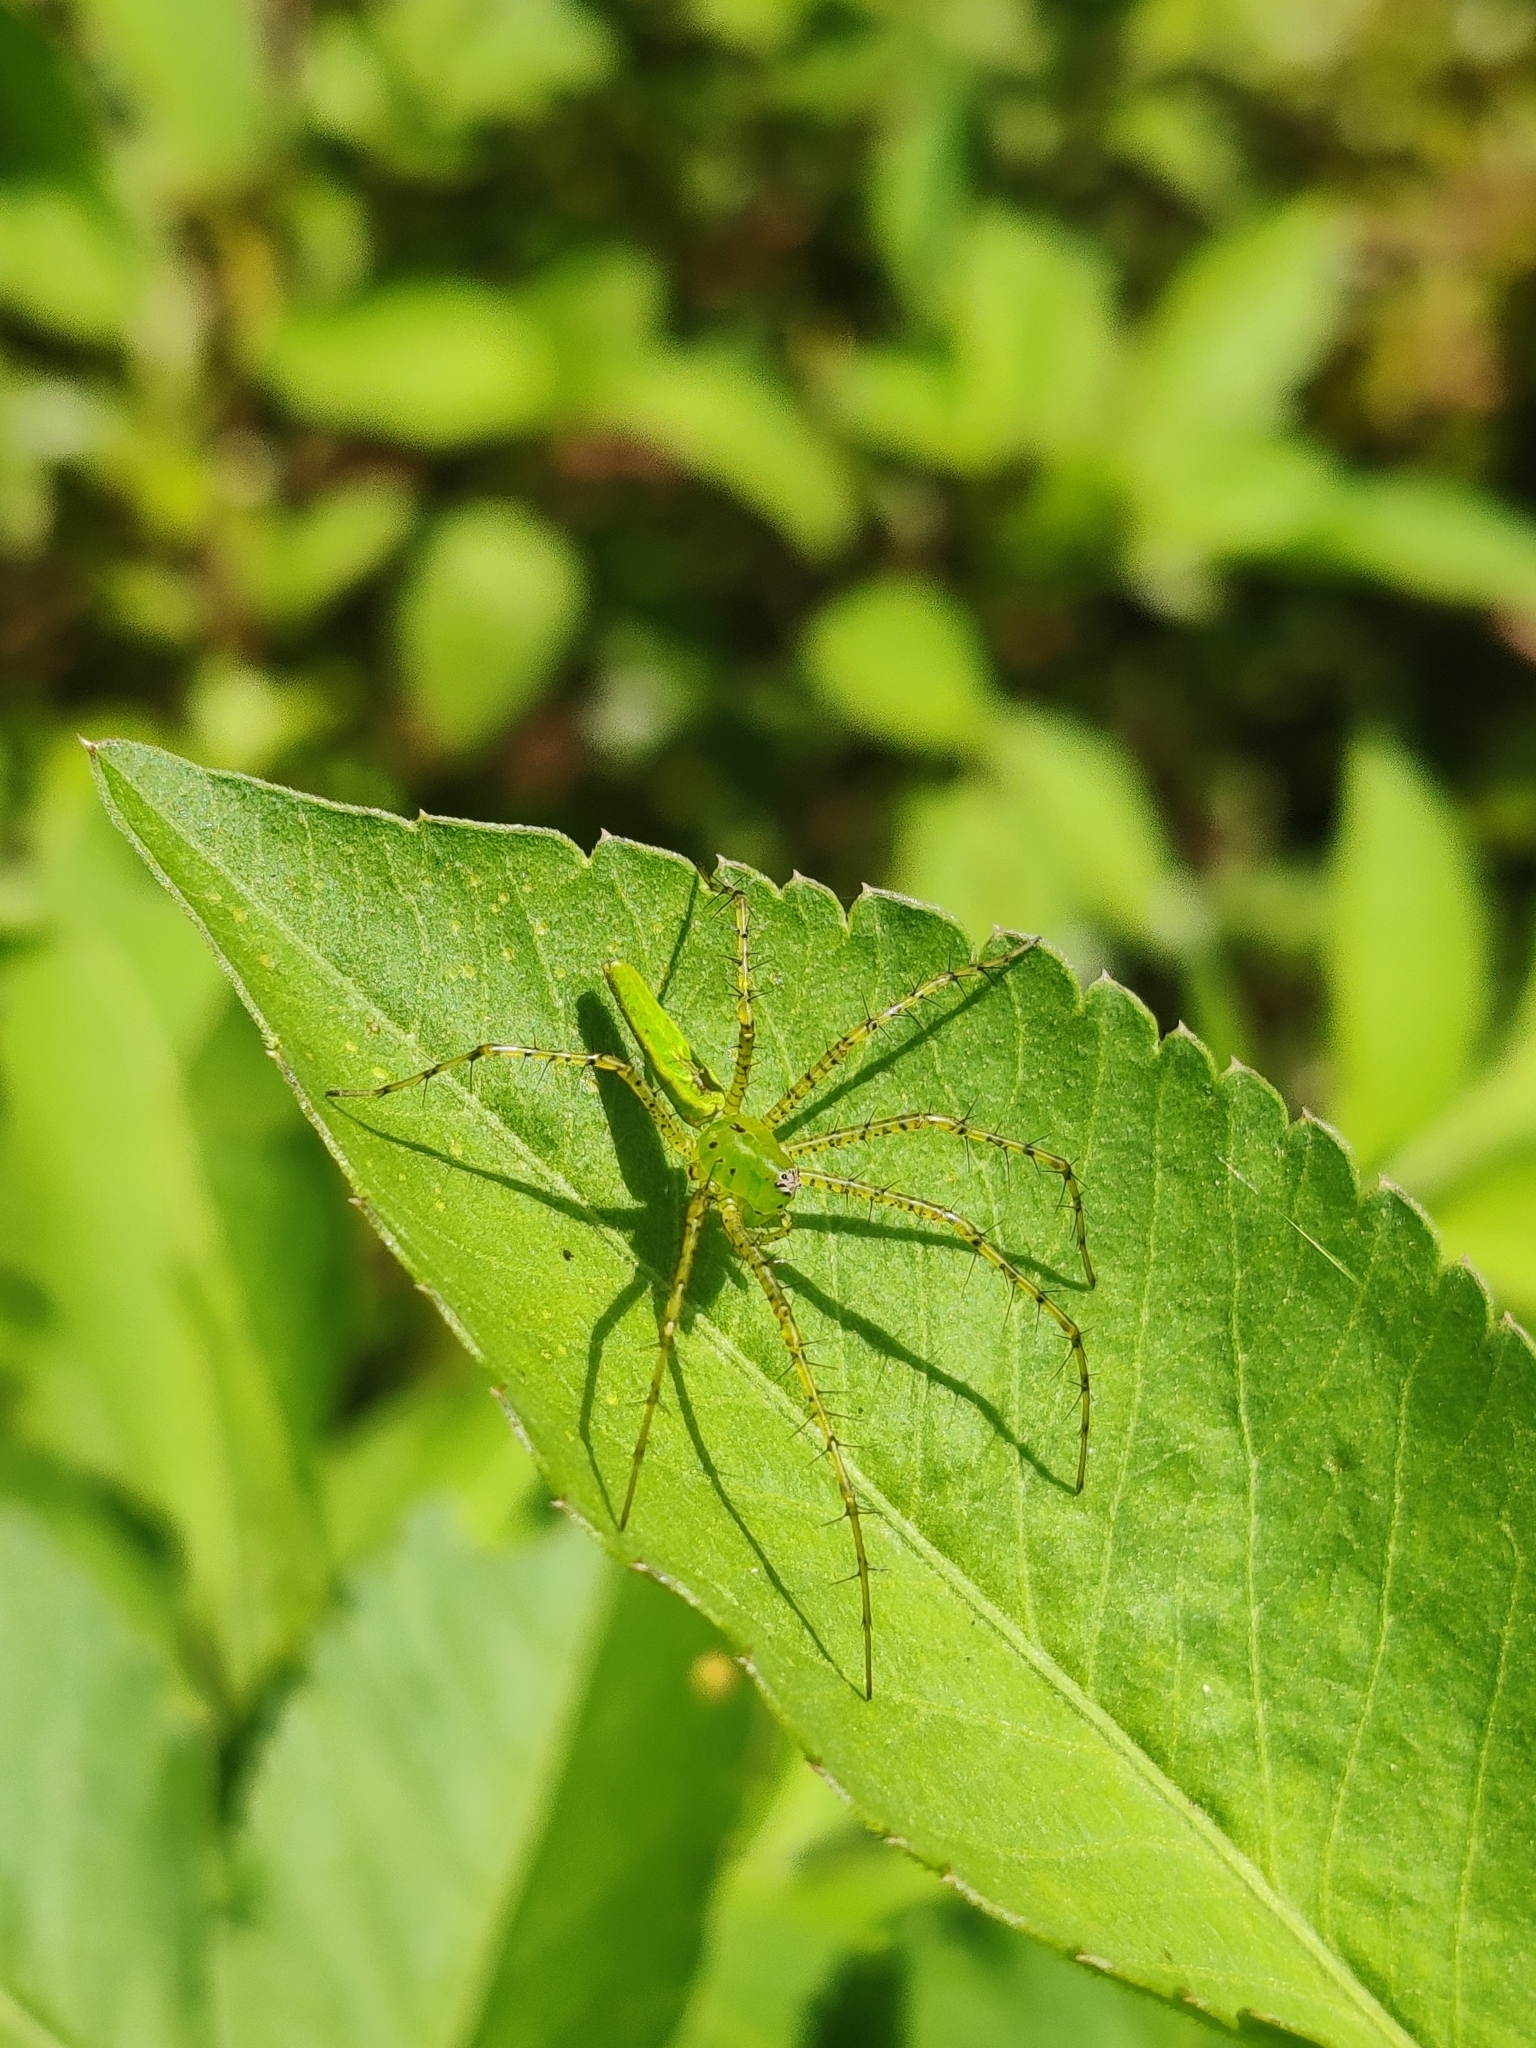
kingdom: Animalia
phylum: Arthropoda
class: Arachnida
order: Araneae
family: Oxyopidae
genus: Peucetia
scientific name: Peucetia viridans
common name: Lynx spiders
